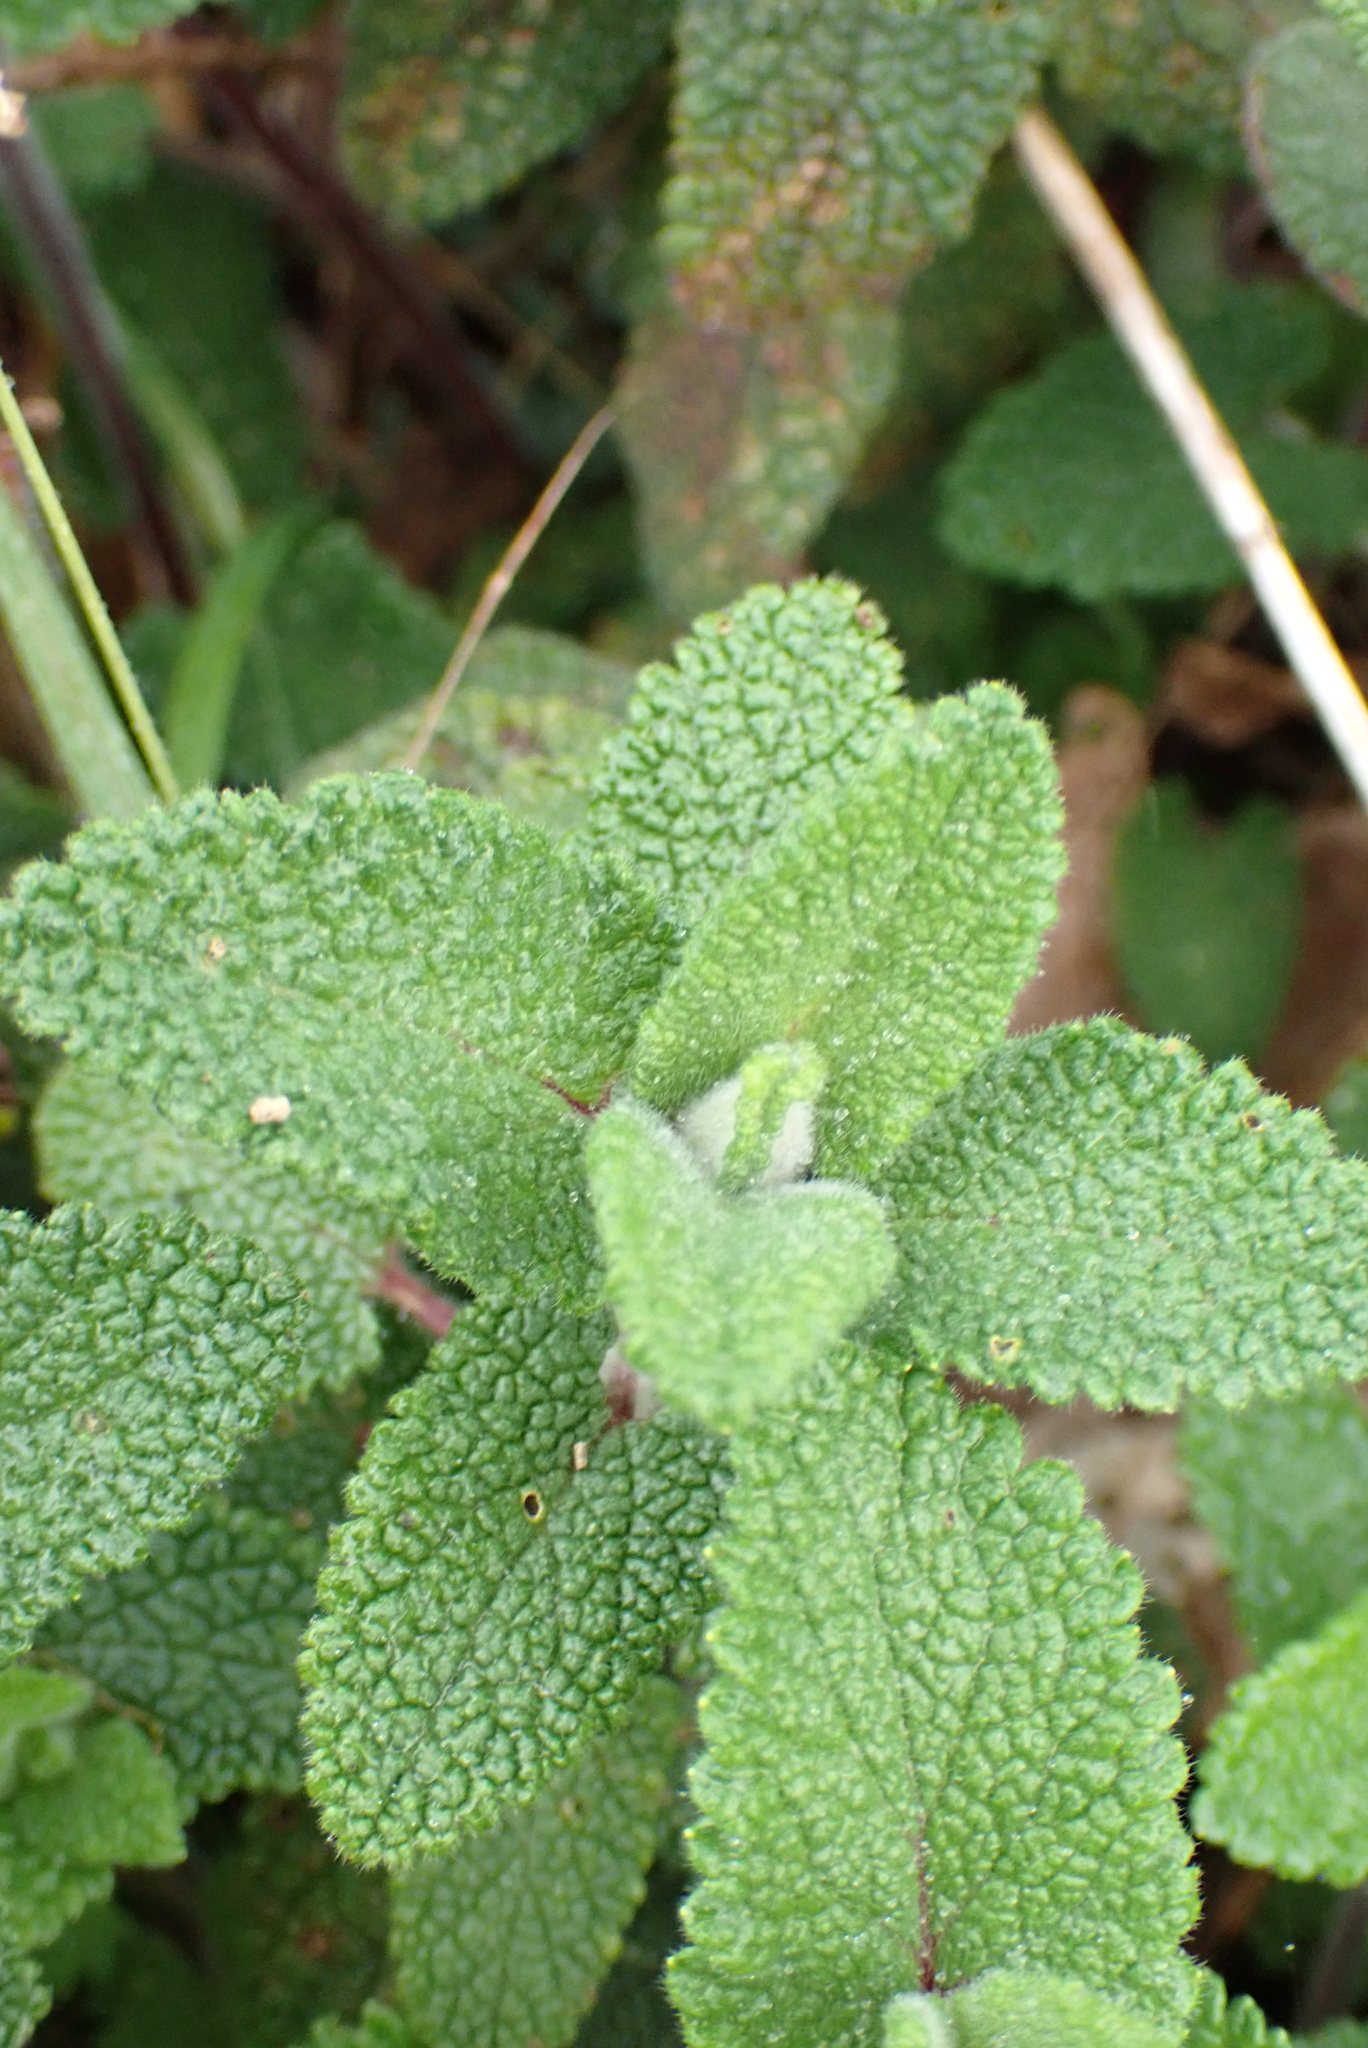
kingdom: Plantae
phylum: Tracheophyta
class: Magnoliopsida
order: Lamiales
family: Lamiaceae
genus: Teucrium
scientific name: Teucrium scorodonia
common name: Woodland germander
